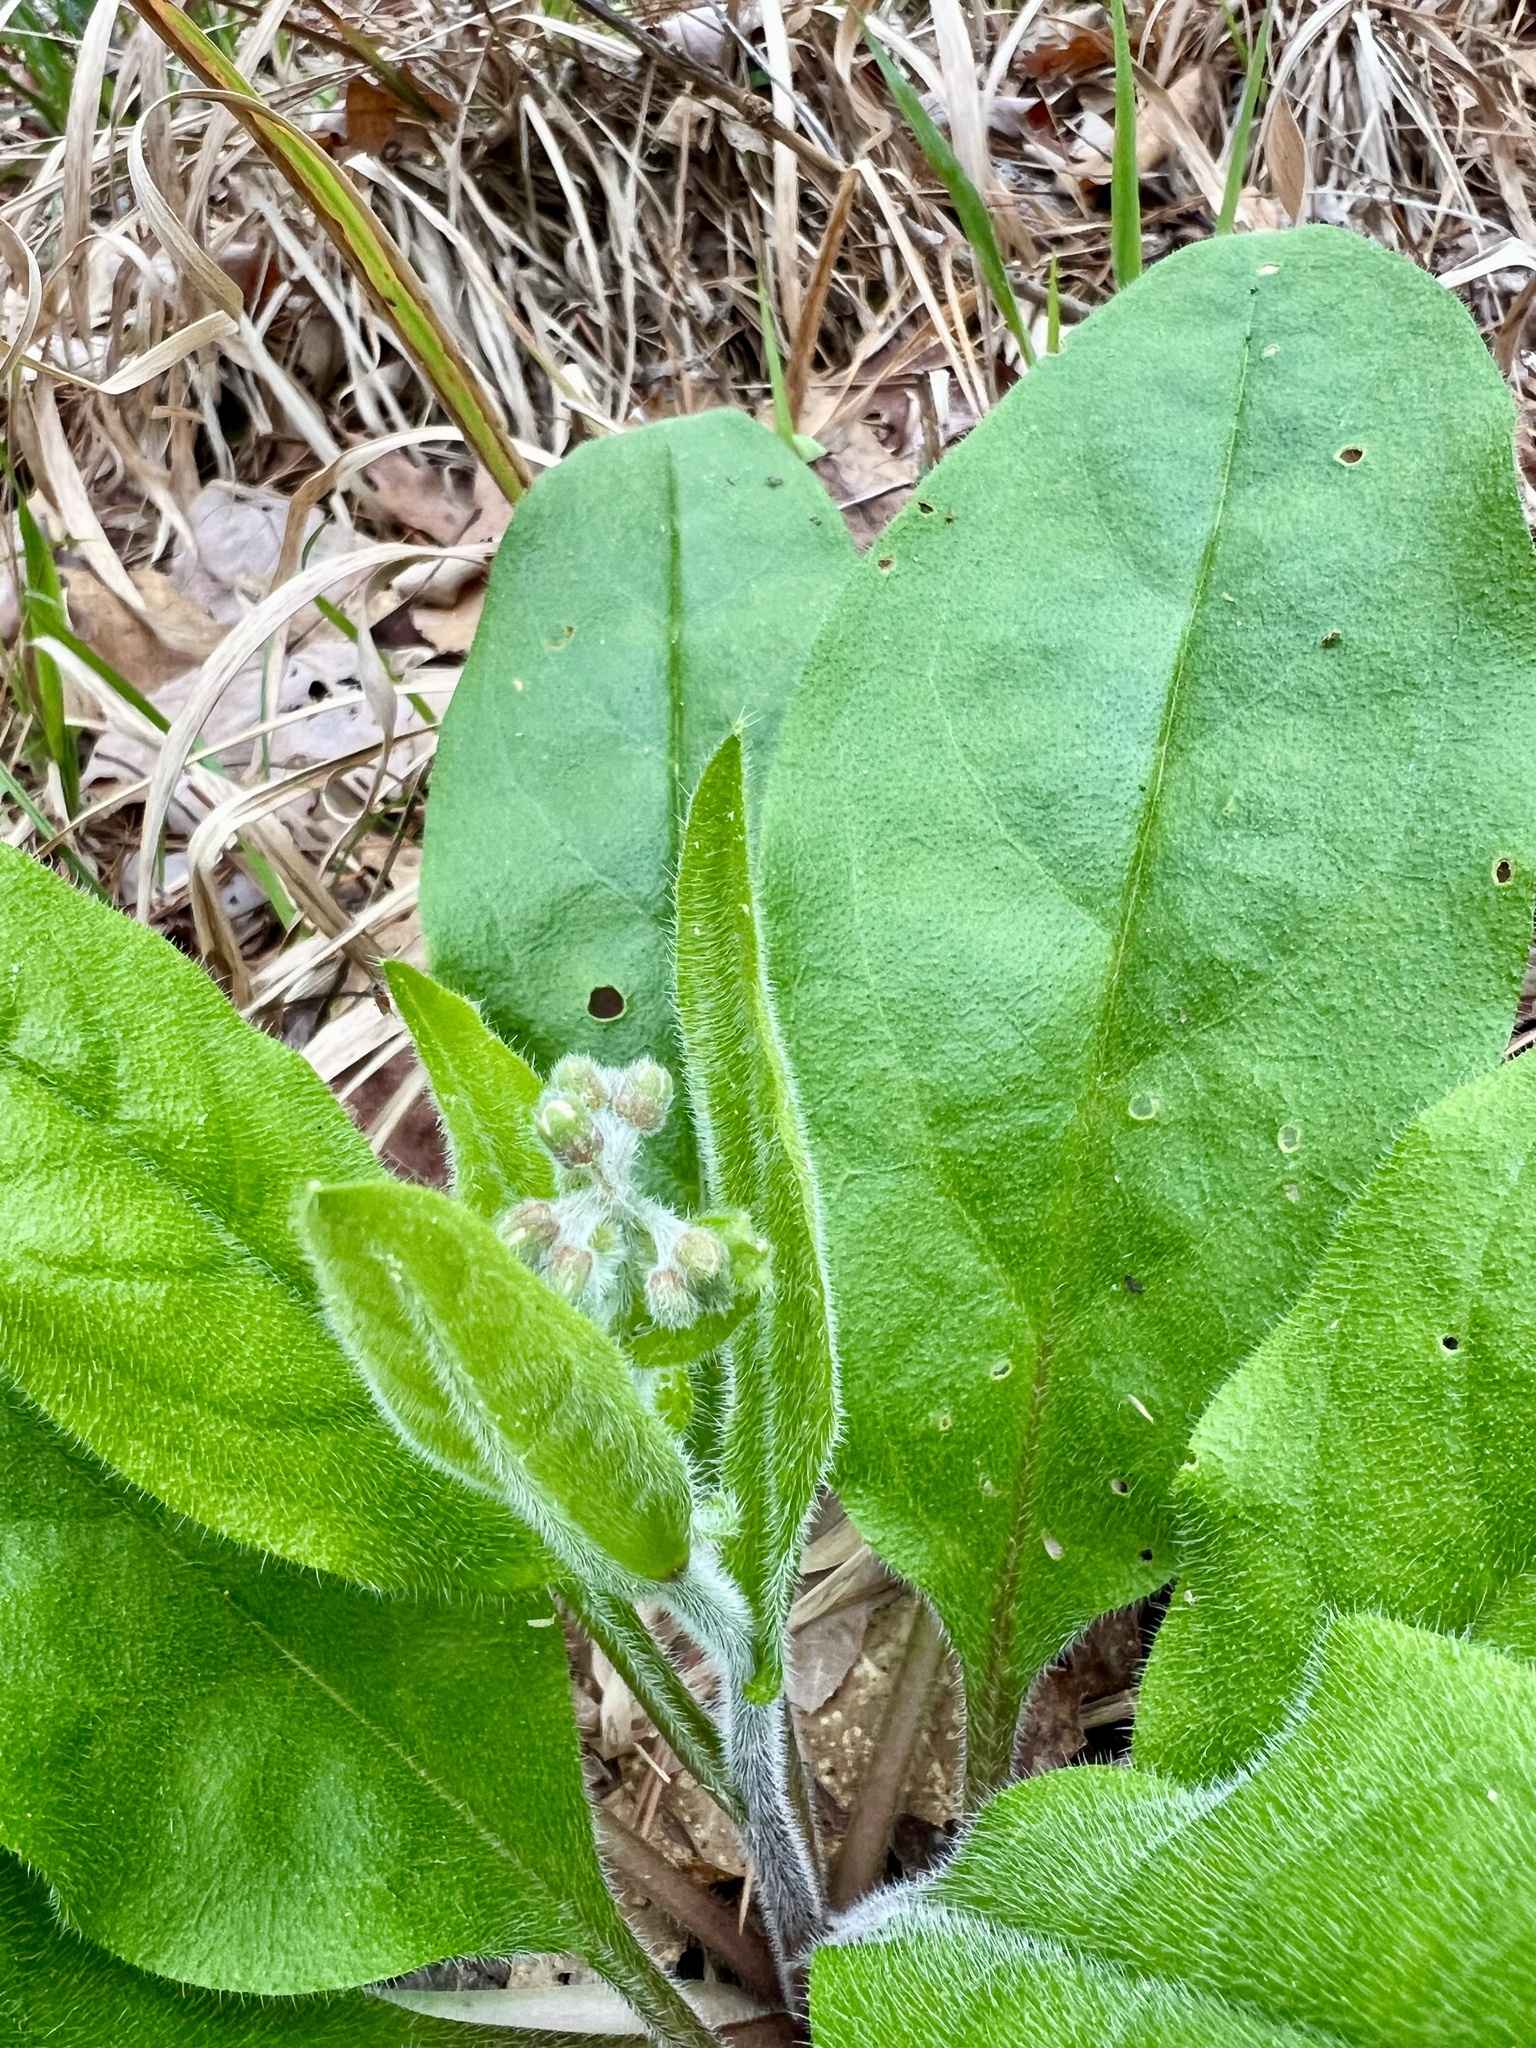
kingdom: Plantae
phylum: Tracheophyta
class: Magnoliopsida
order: Boraginales
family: Boraginaceae
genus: Andersonglossum
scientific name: Andersonglossum virginianum
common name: Wild comfrey
